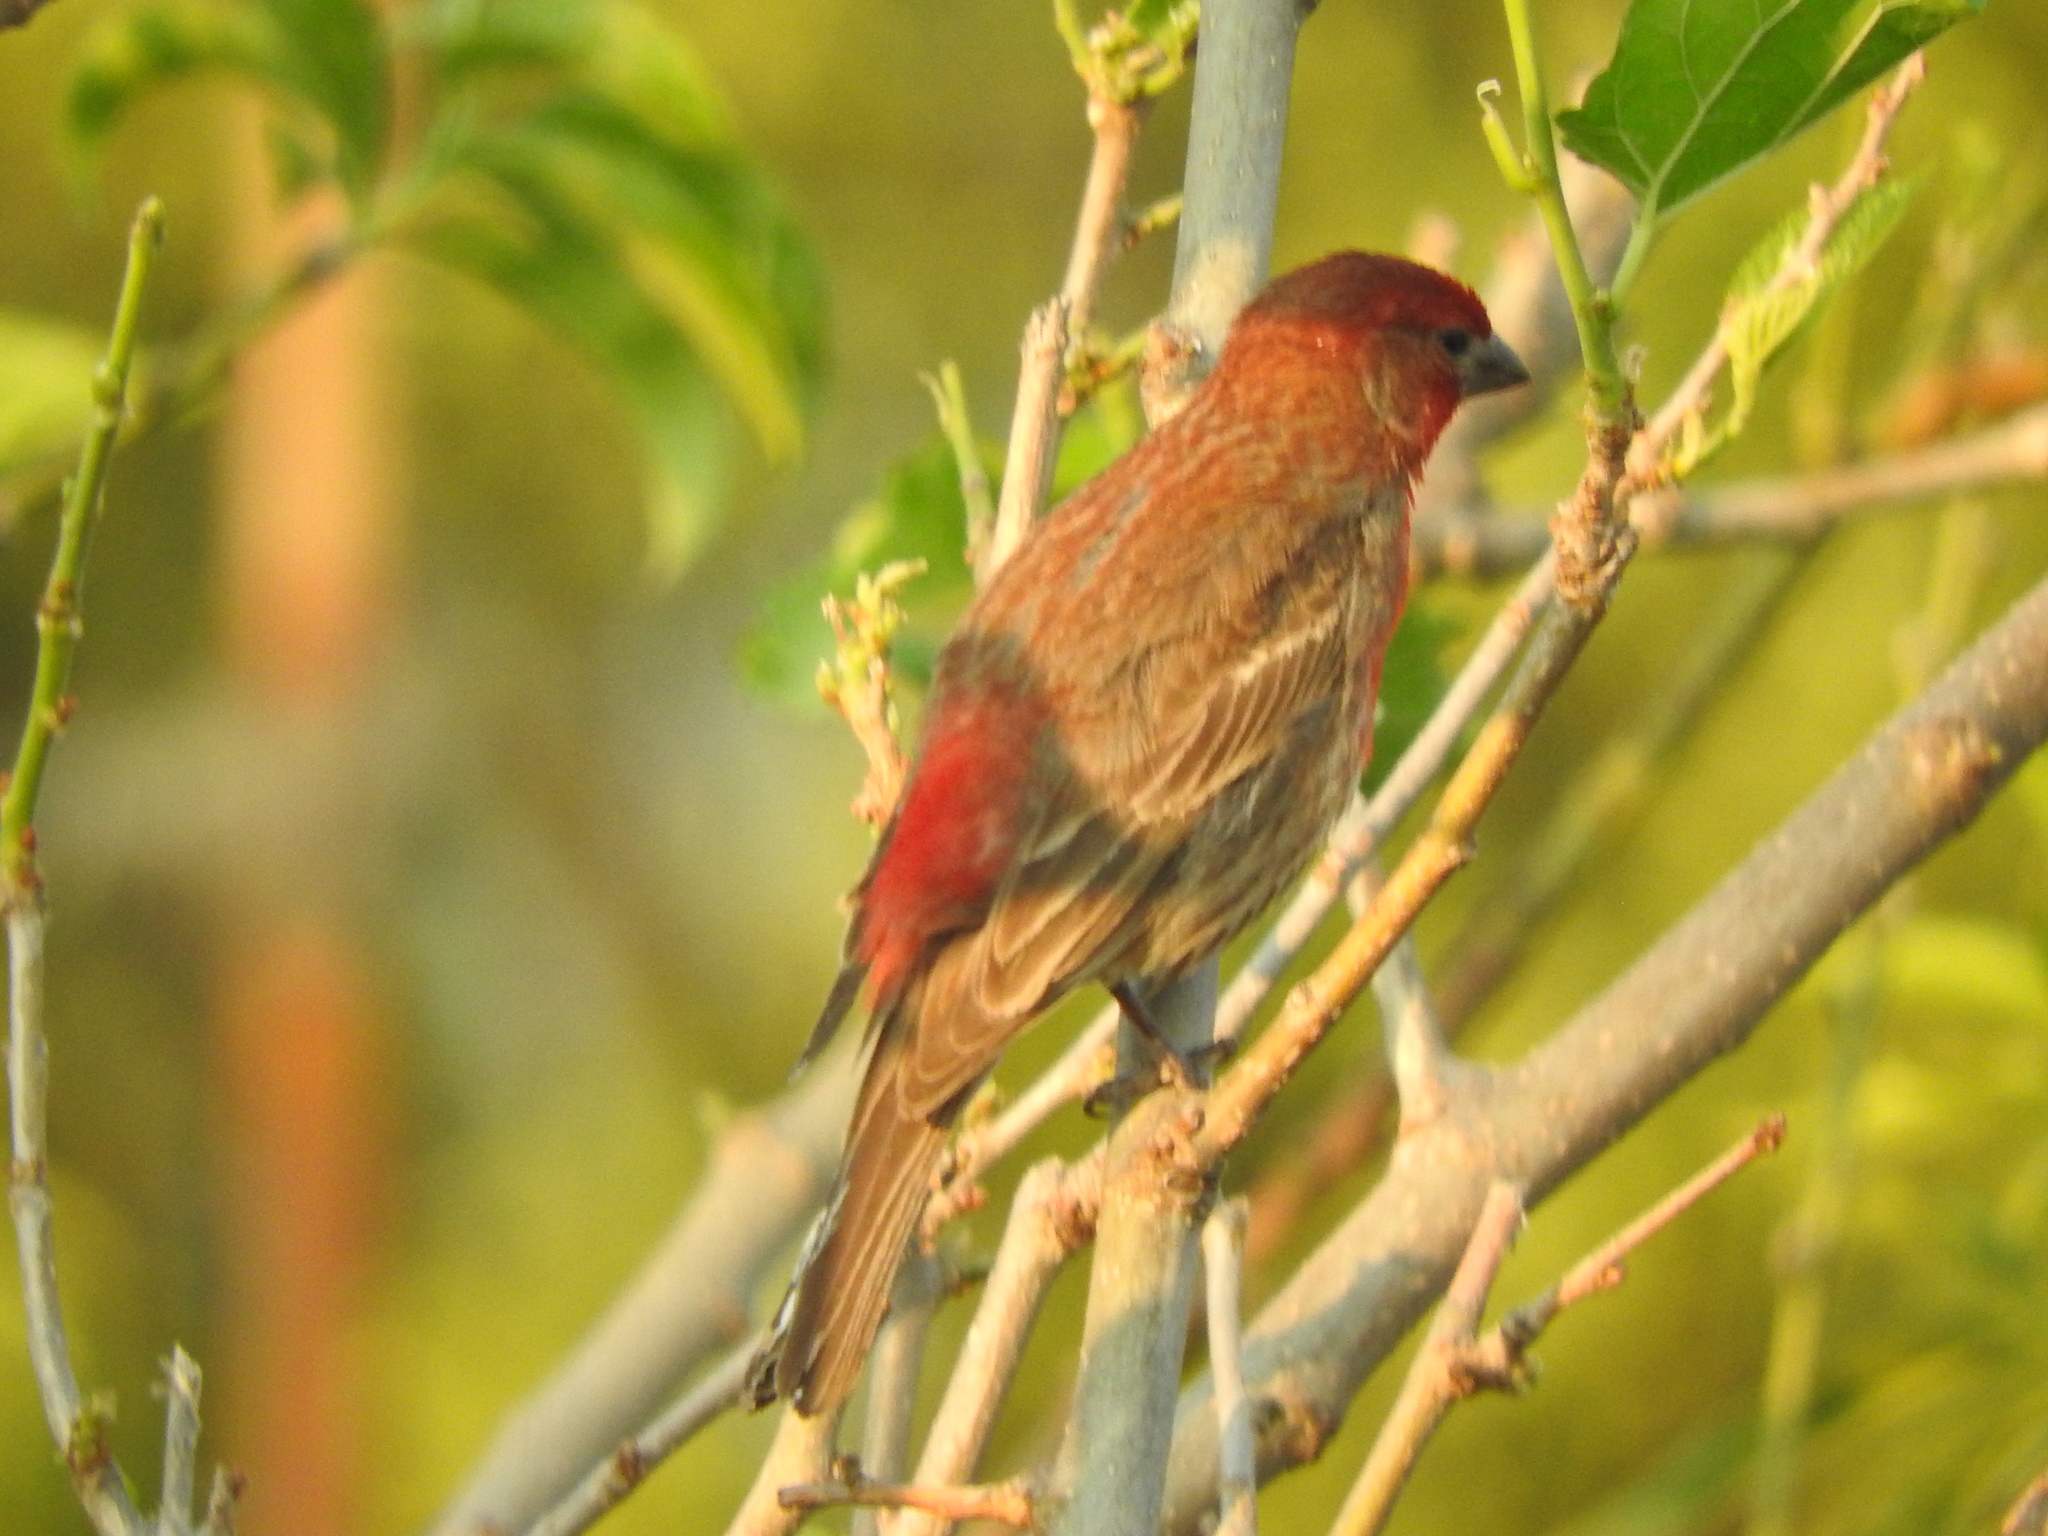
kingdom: Animalia
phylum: Chordata
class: Aves
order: Passeriformes
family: Fringillidae
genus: Haemorhous
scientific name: Haemorhous mexicanus
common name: House finch
